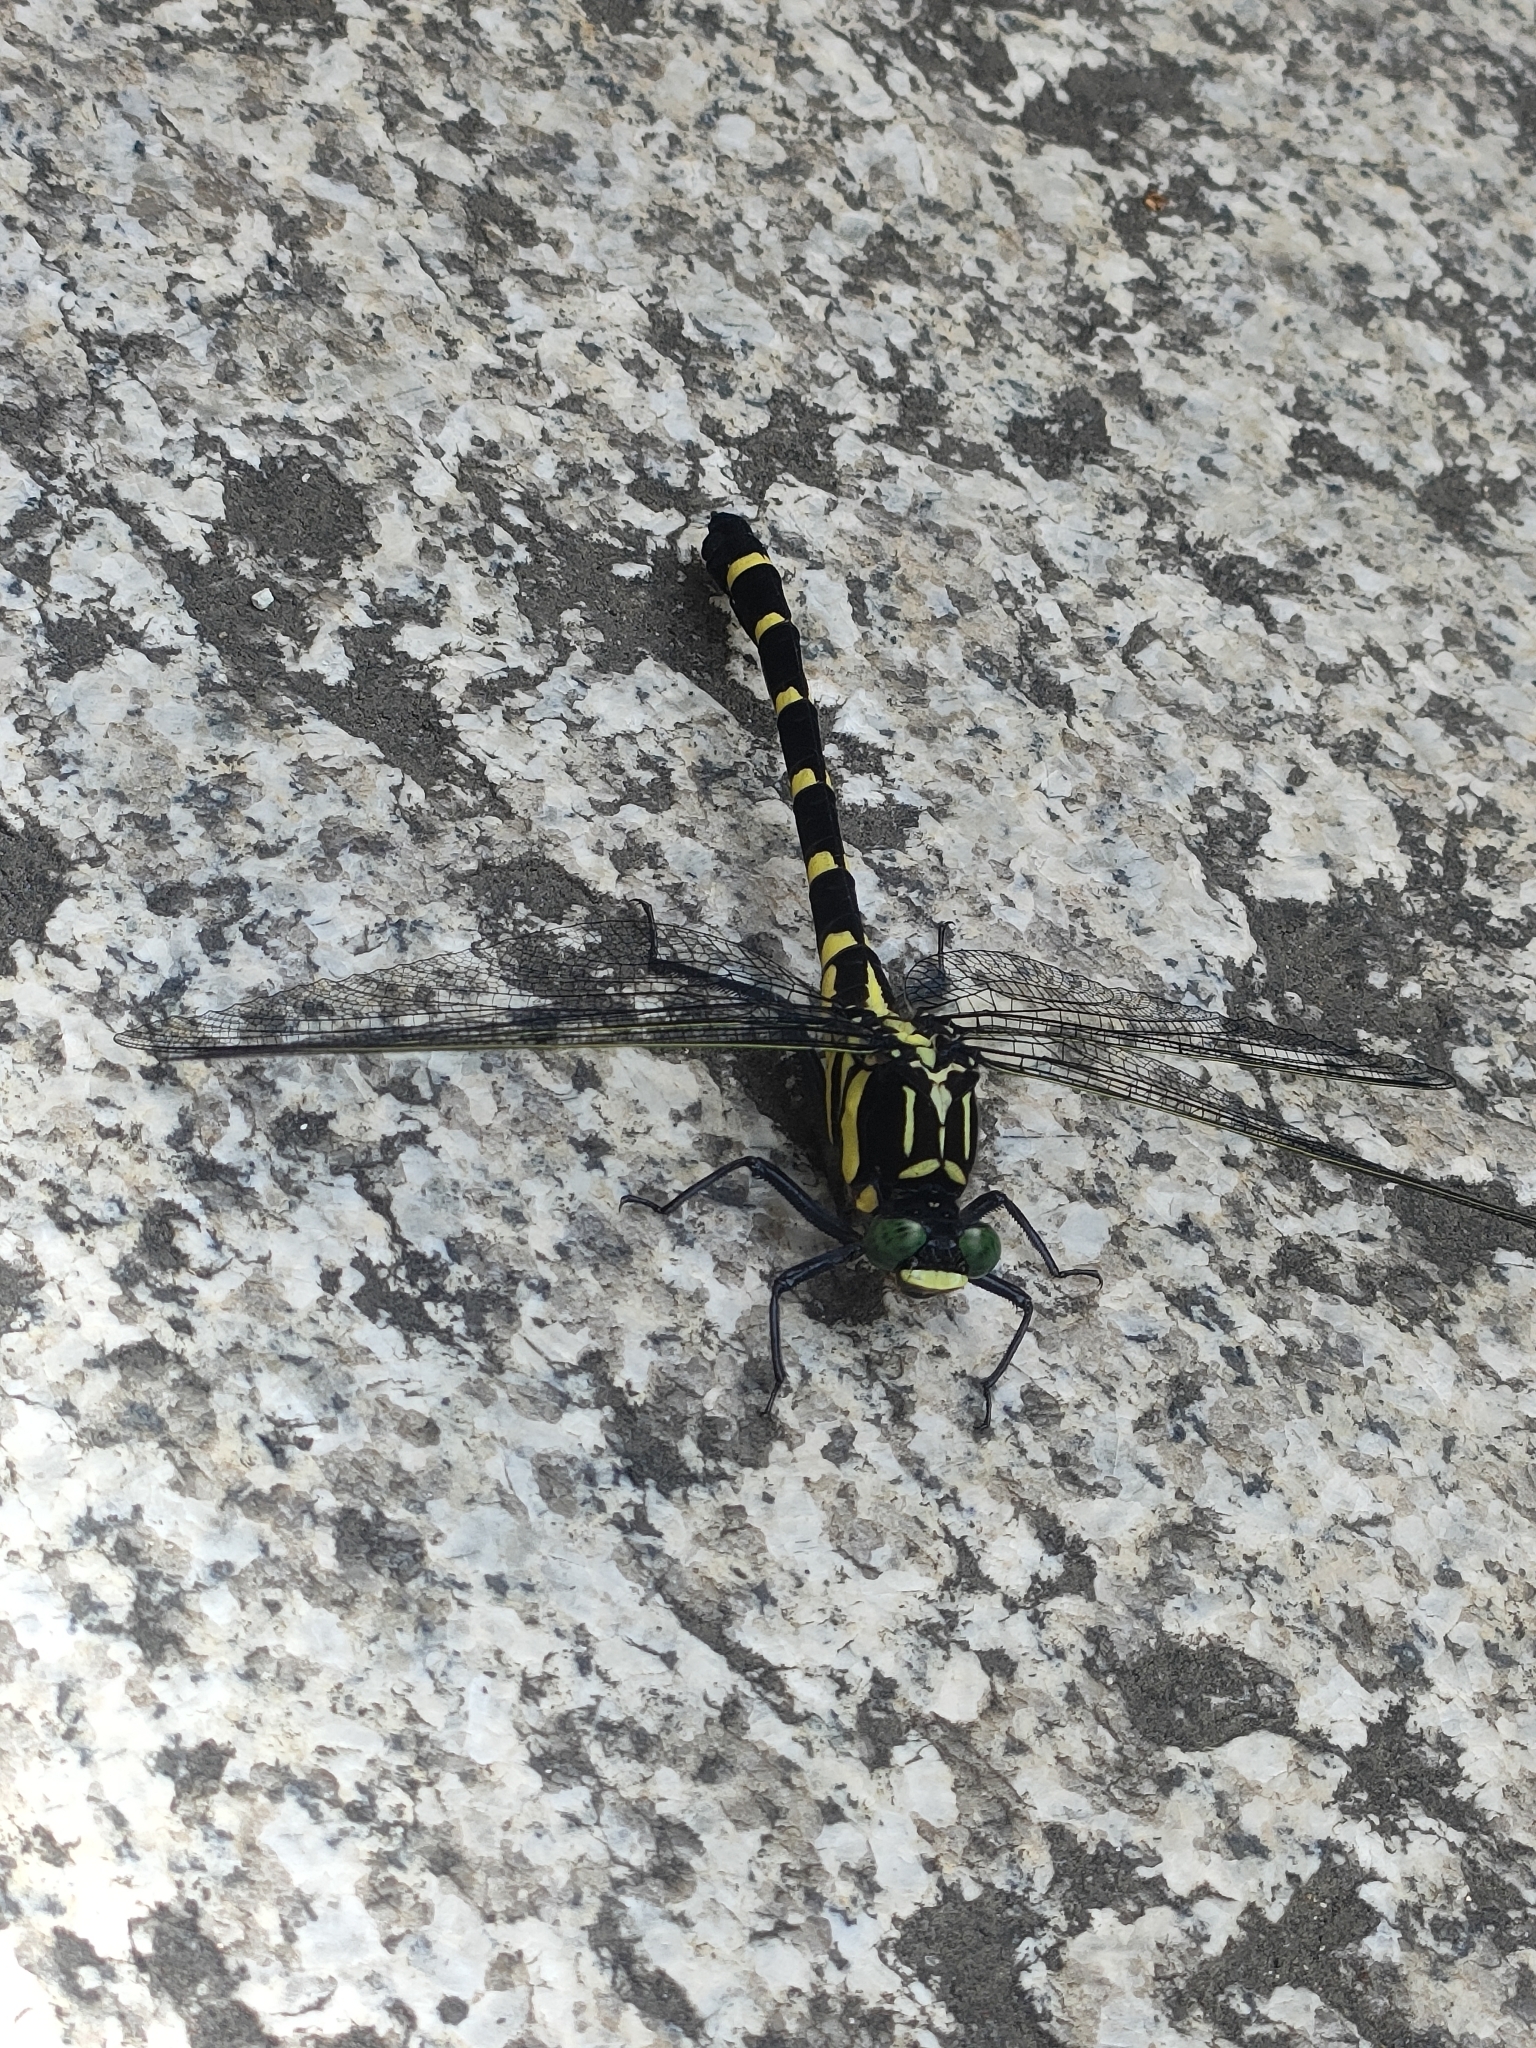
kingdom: Animalia
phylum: Arthropoda
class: Insecta
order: Odonata
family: Gomphidae
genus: Sieboldius
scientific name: Sieboldius albardae
